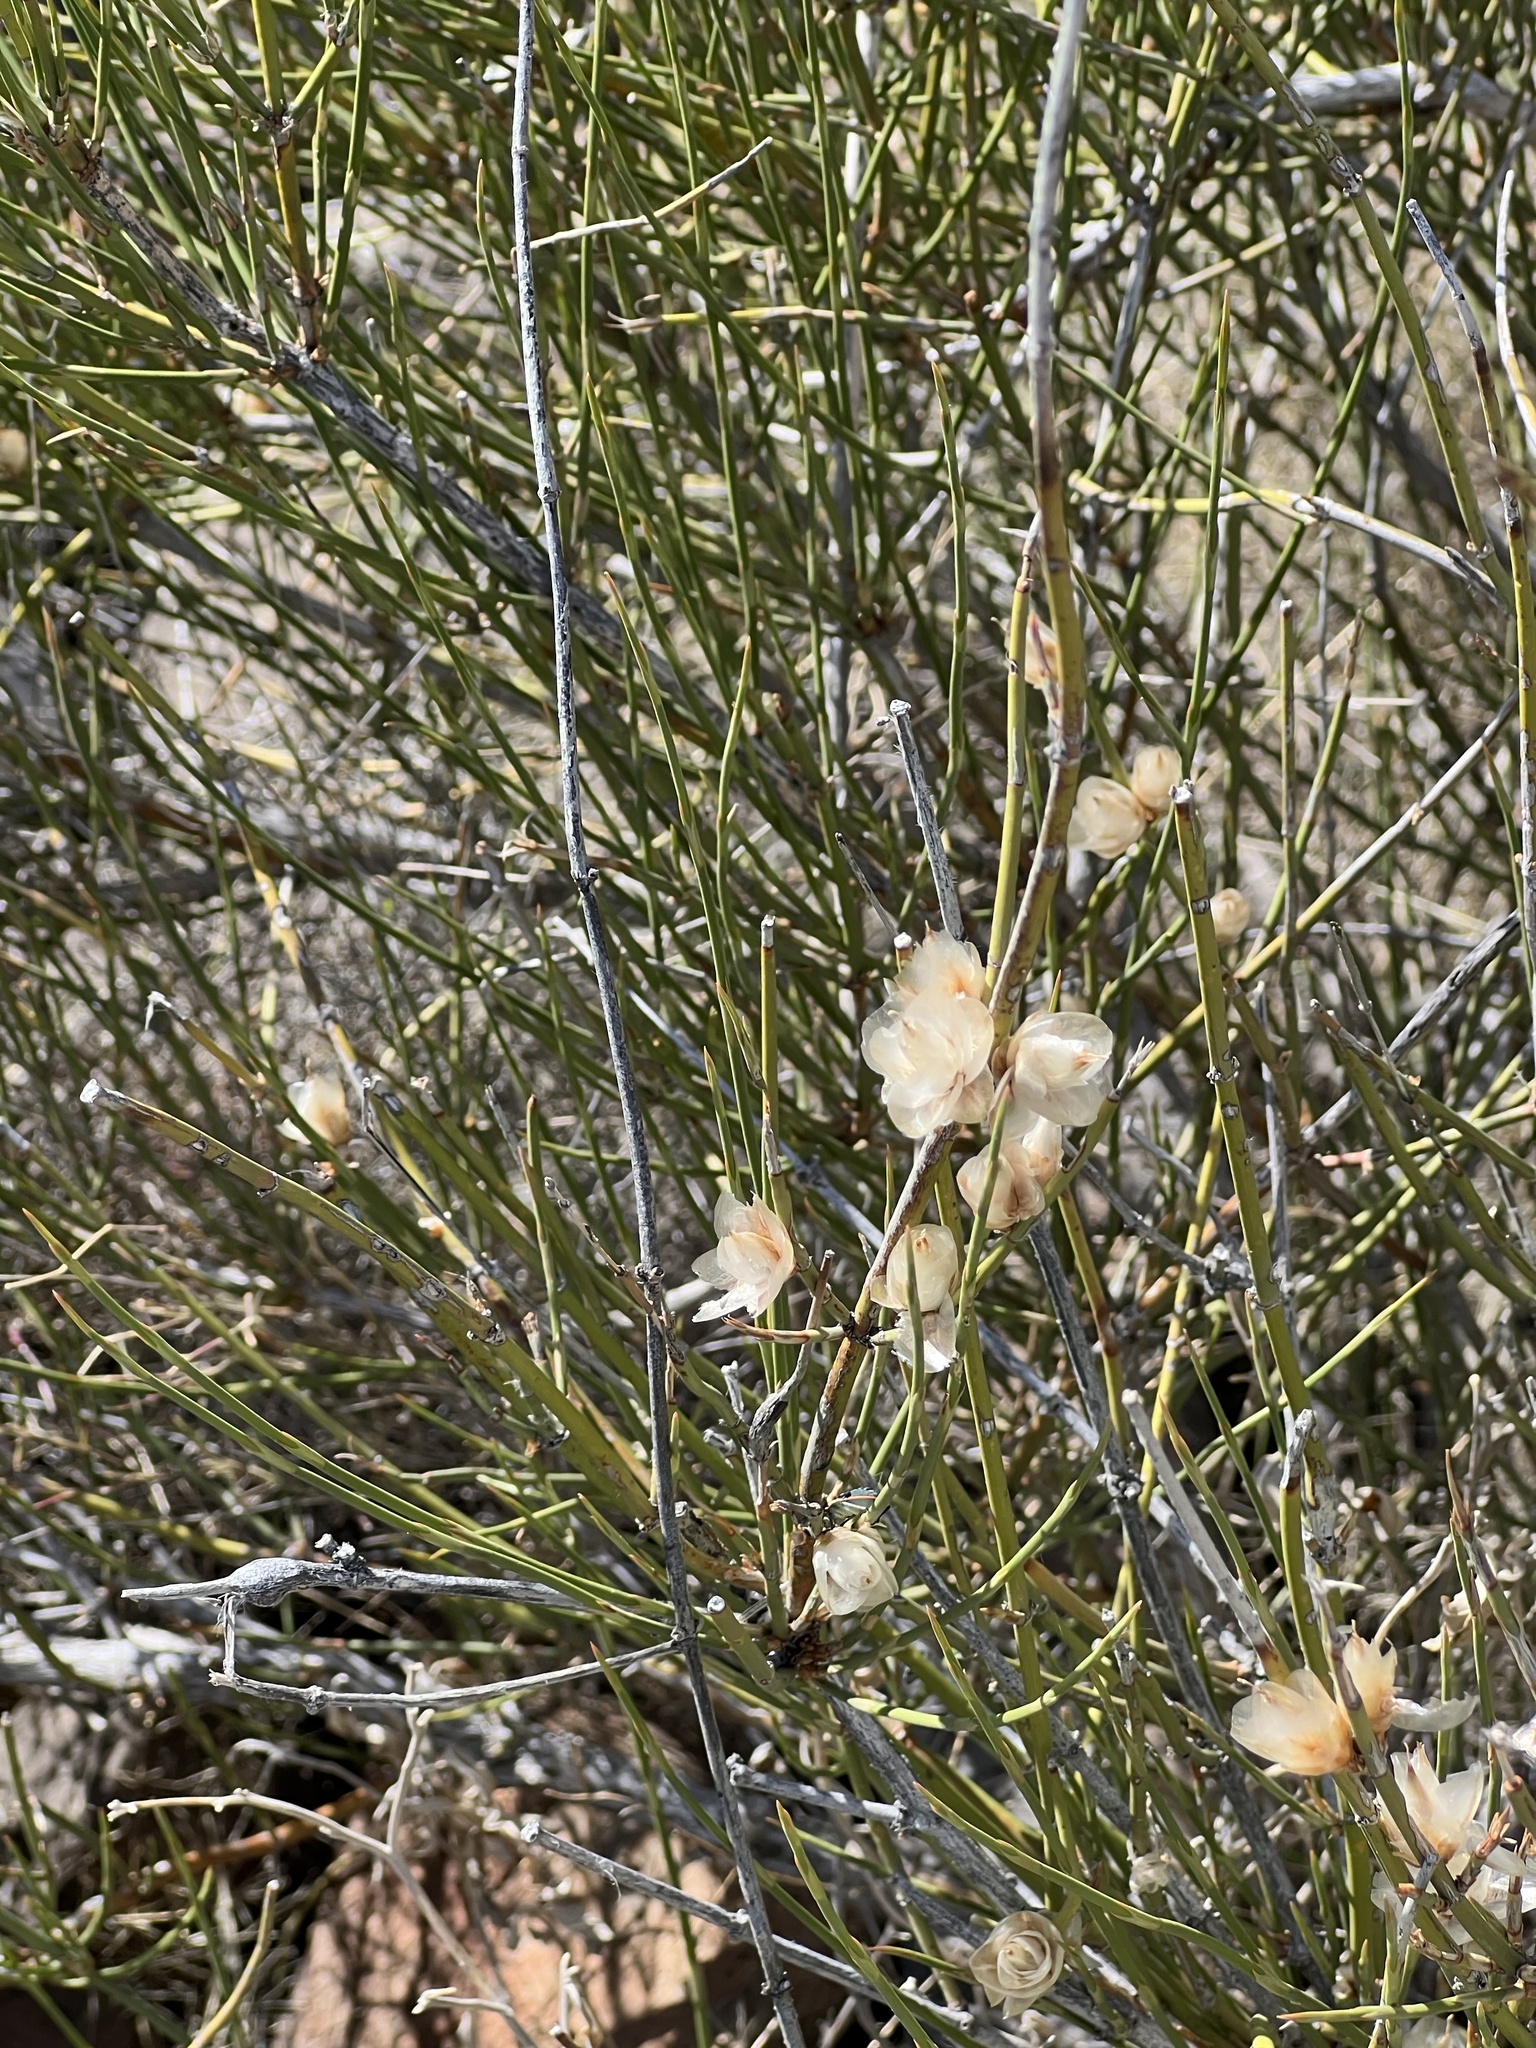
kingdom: Plantae
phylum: Tracheophyta
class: Gnetopsida
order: Ephedrales
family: Ephedraceae
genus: Ephedra
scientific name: Ephedra trifurca
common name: Mexican-tea
